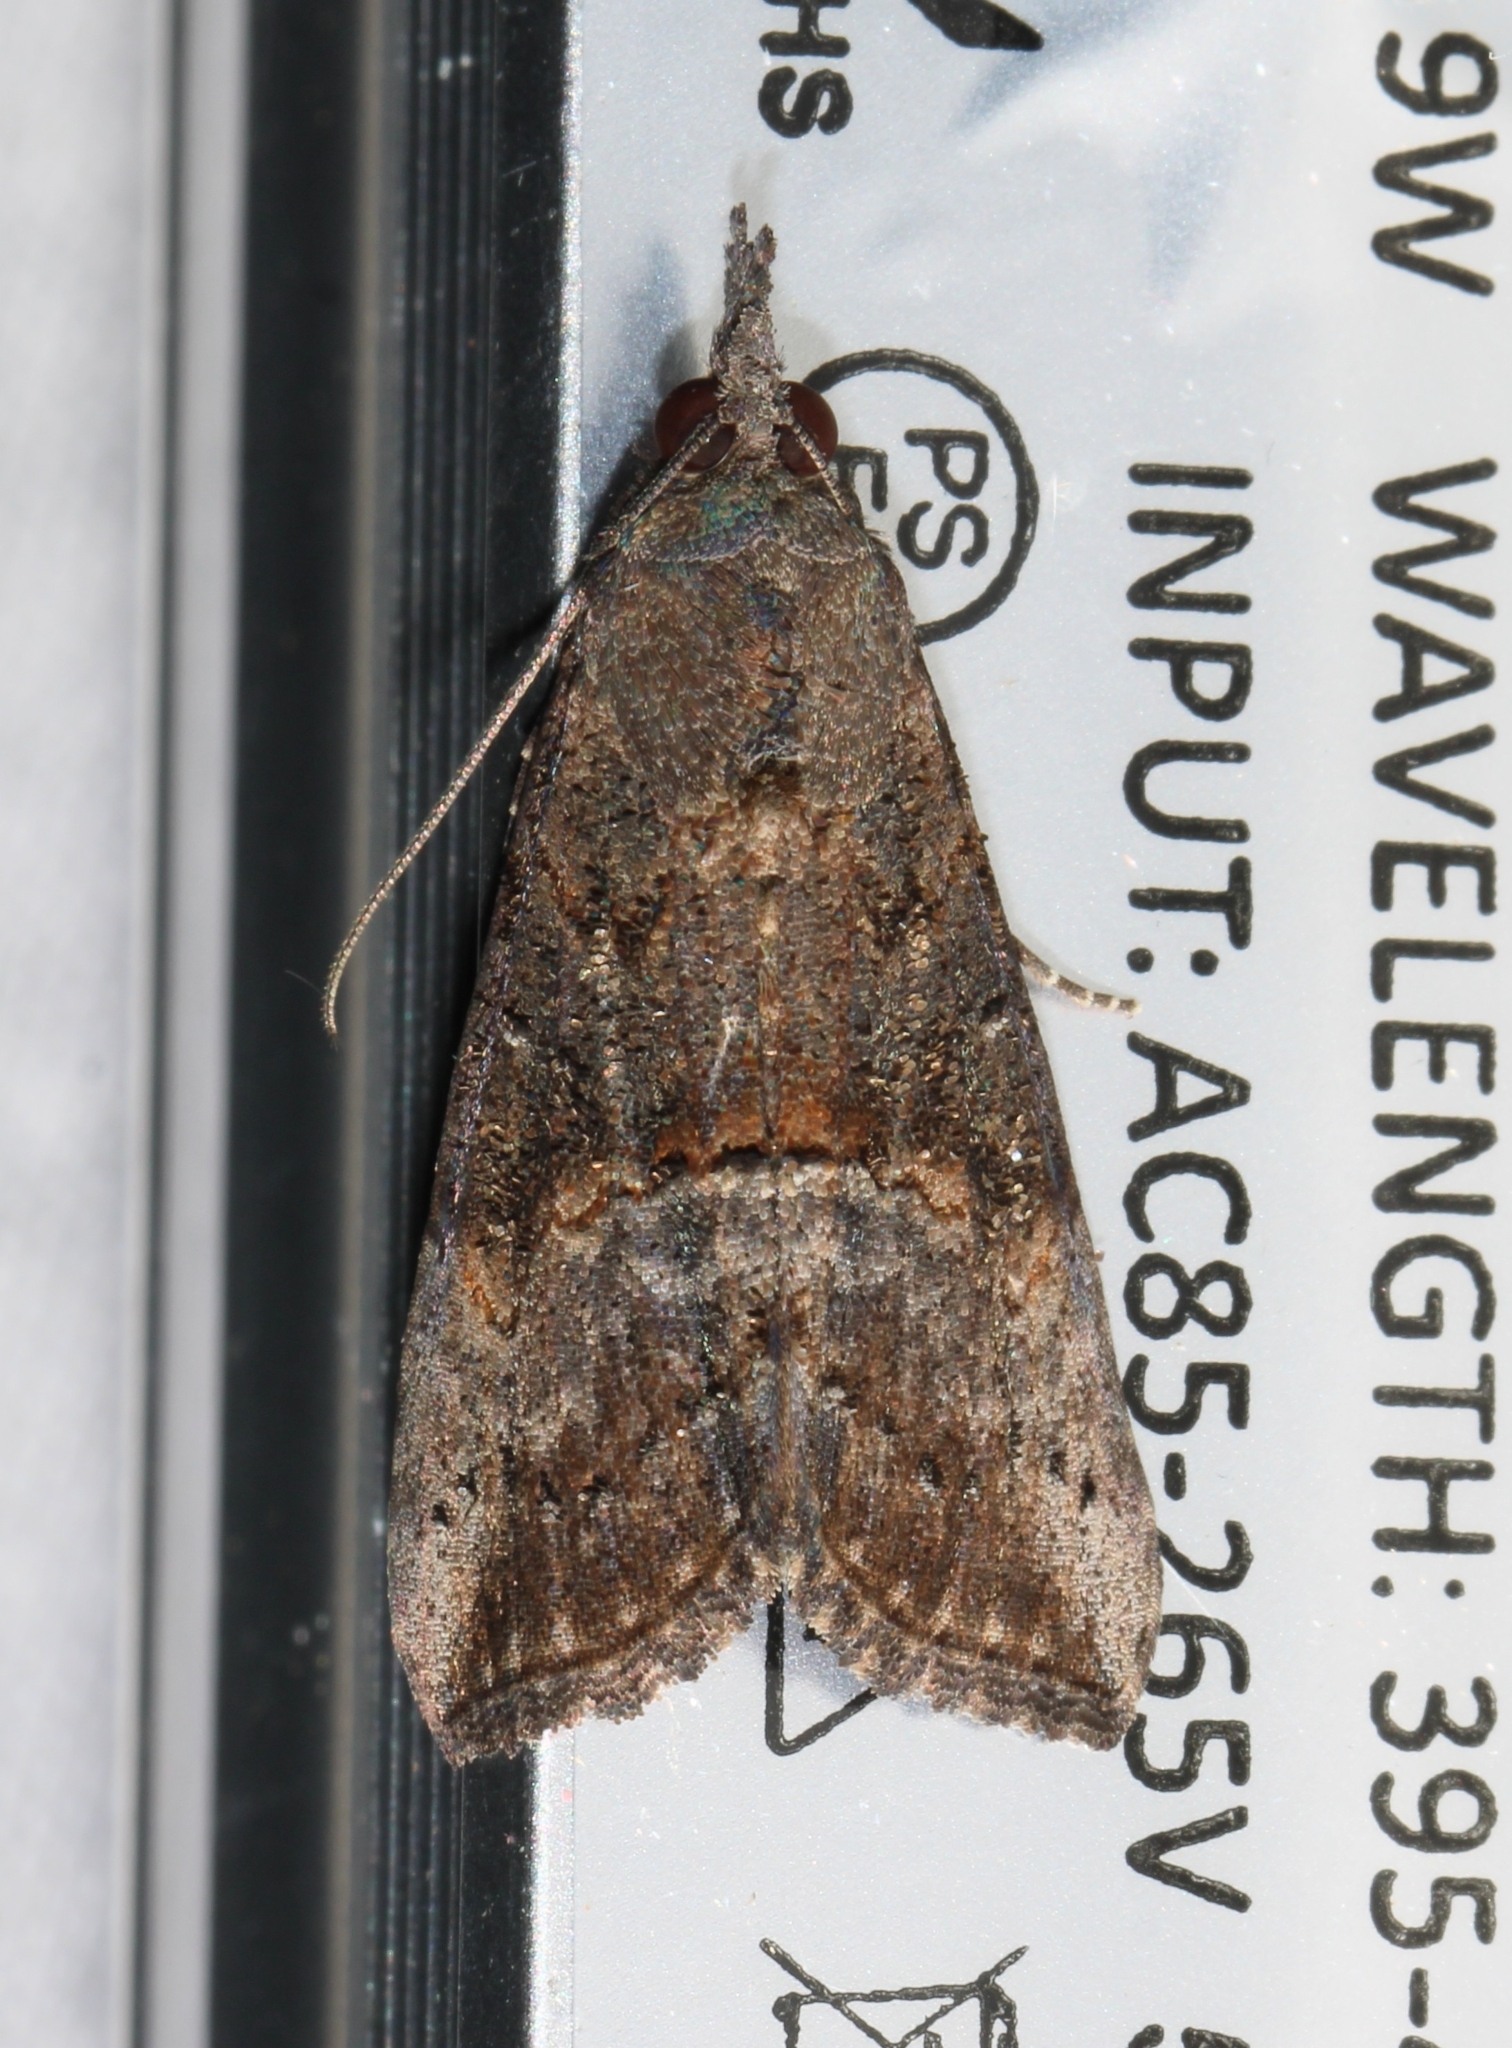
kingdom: Animalia
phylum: Arthropoda
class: Insecta
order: Lepidoptera
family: Erebidae
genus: Hypena
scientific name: Hypena scabra
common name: Green cloverworm
